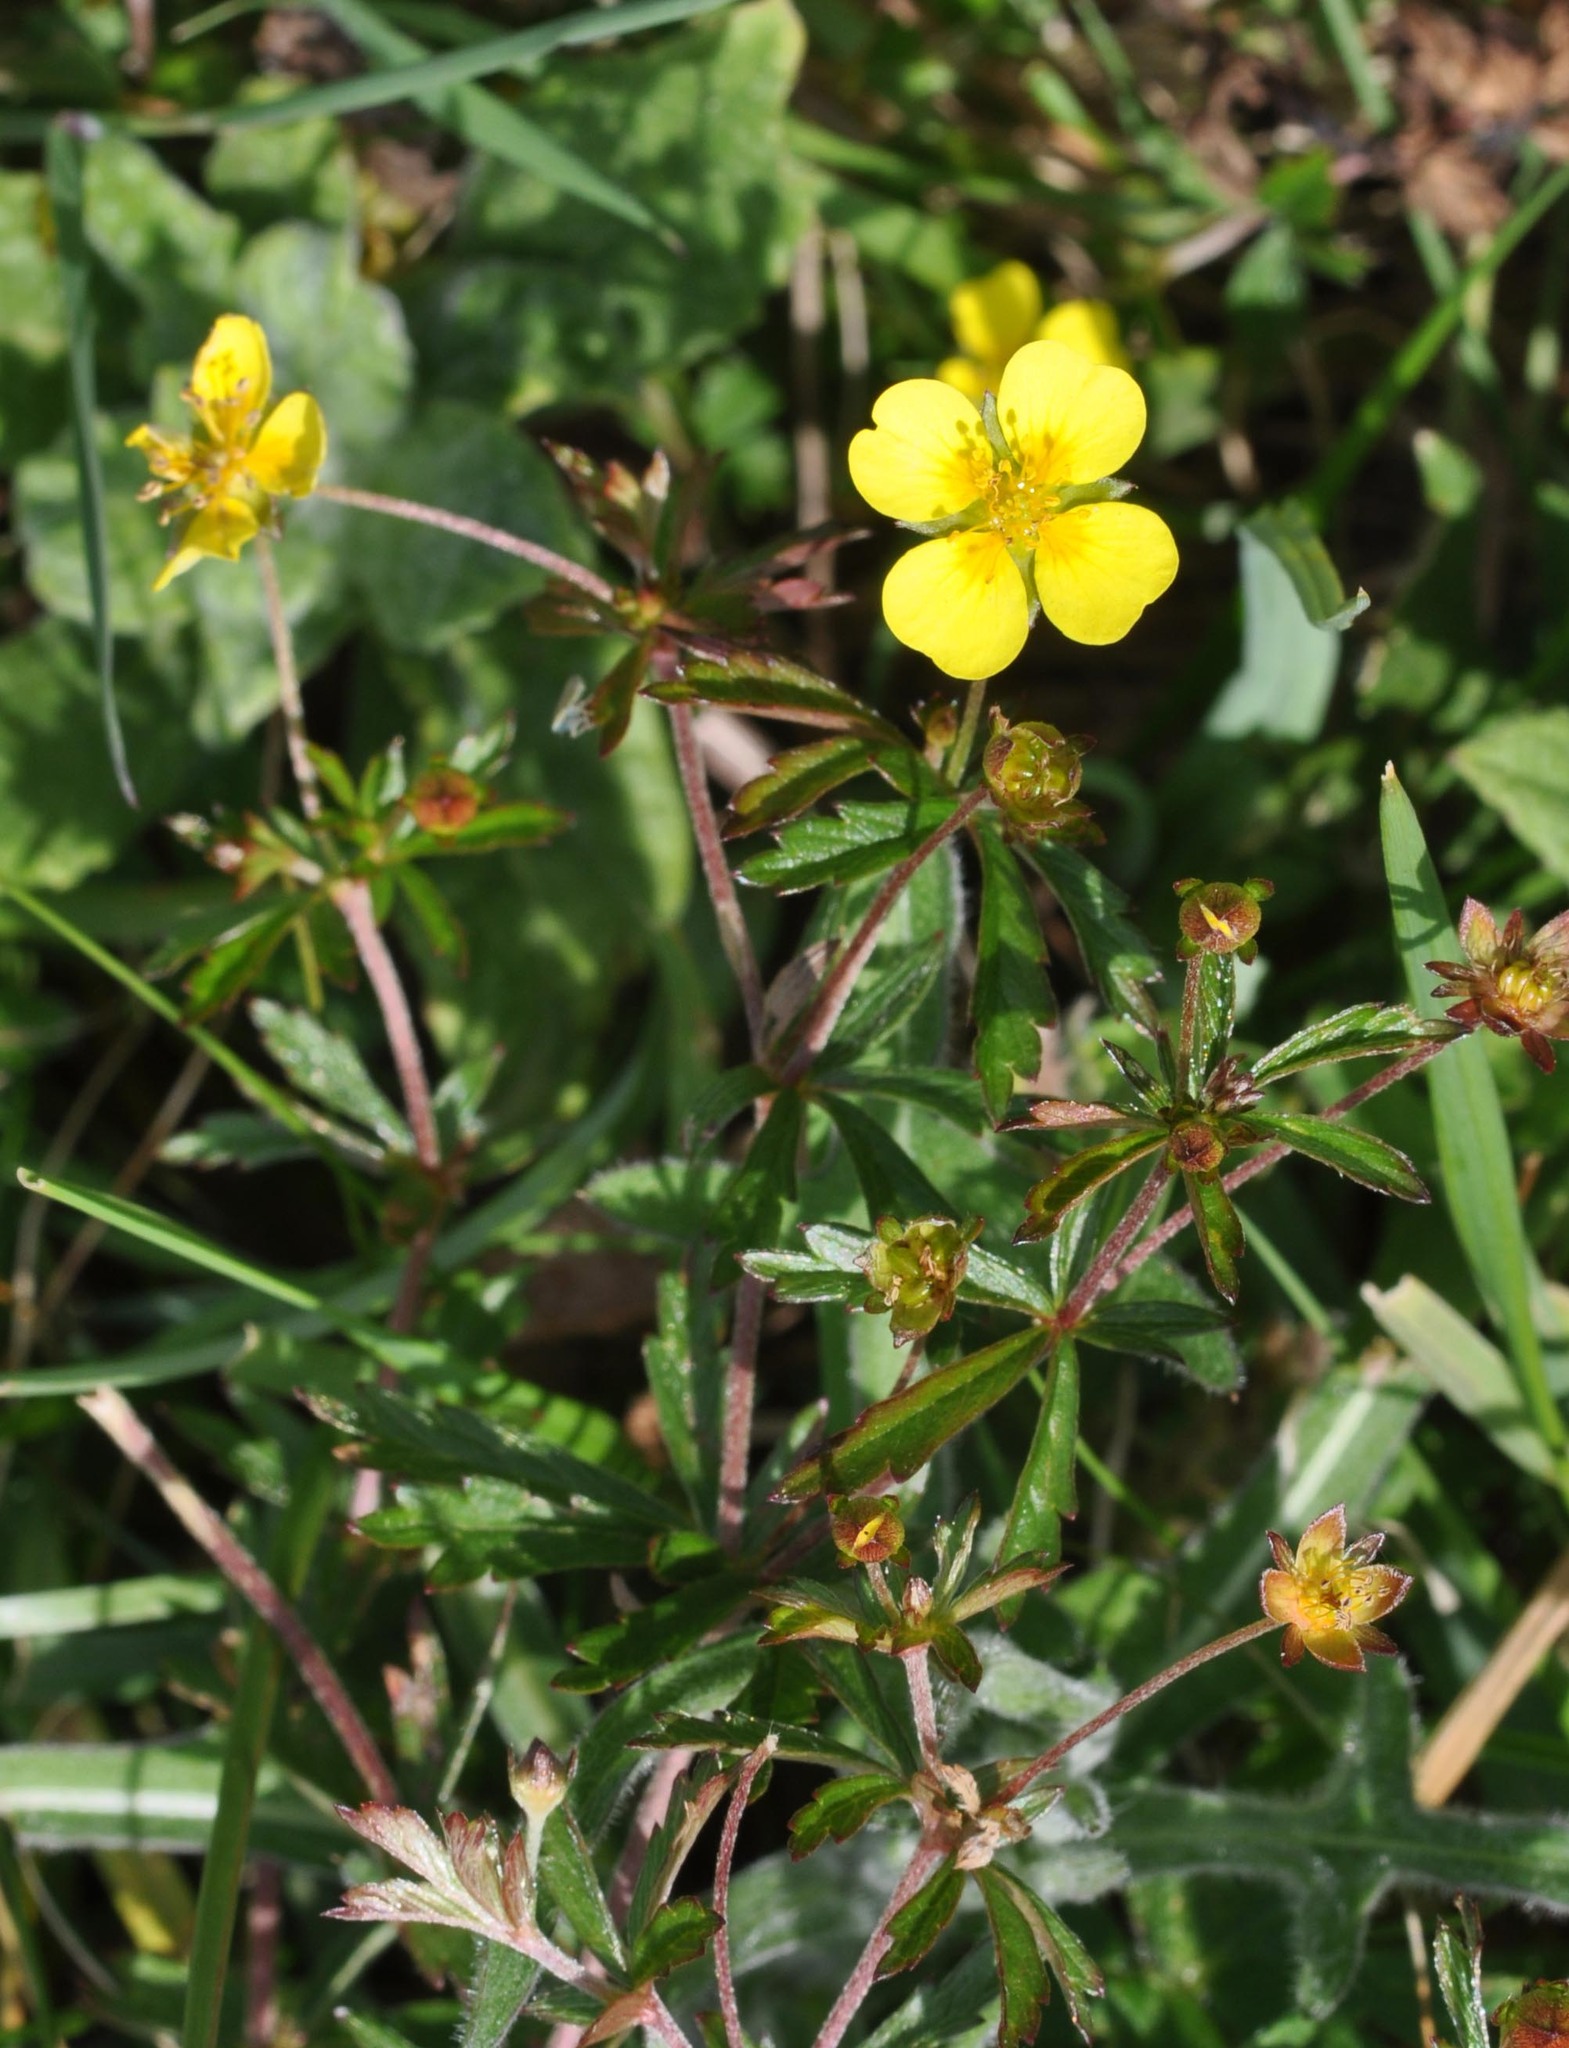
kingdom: Plantae
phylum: Tracheophyta
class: Magnoliopsida
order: Rosales
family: Rosaceae
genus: Potentilla
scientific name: Potentilla erecta
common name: Tormentil
